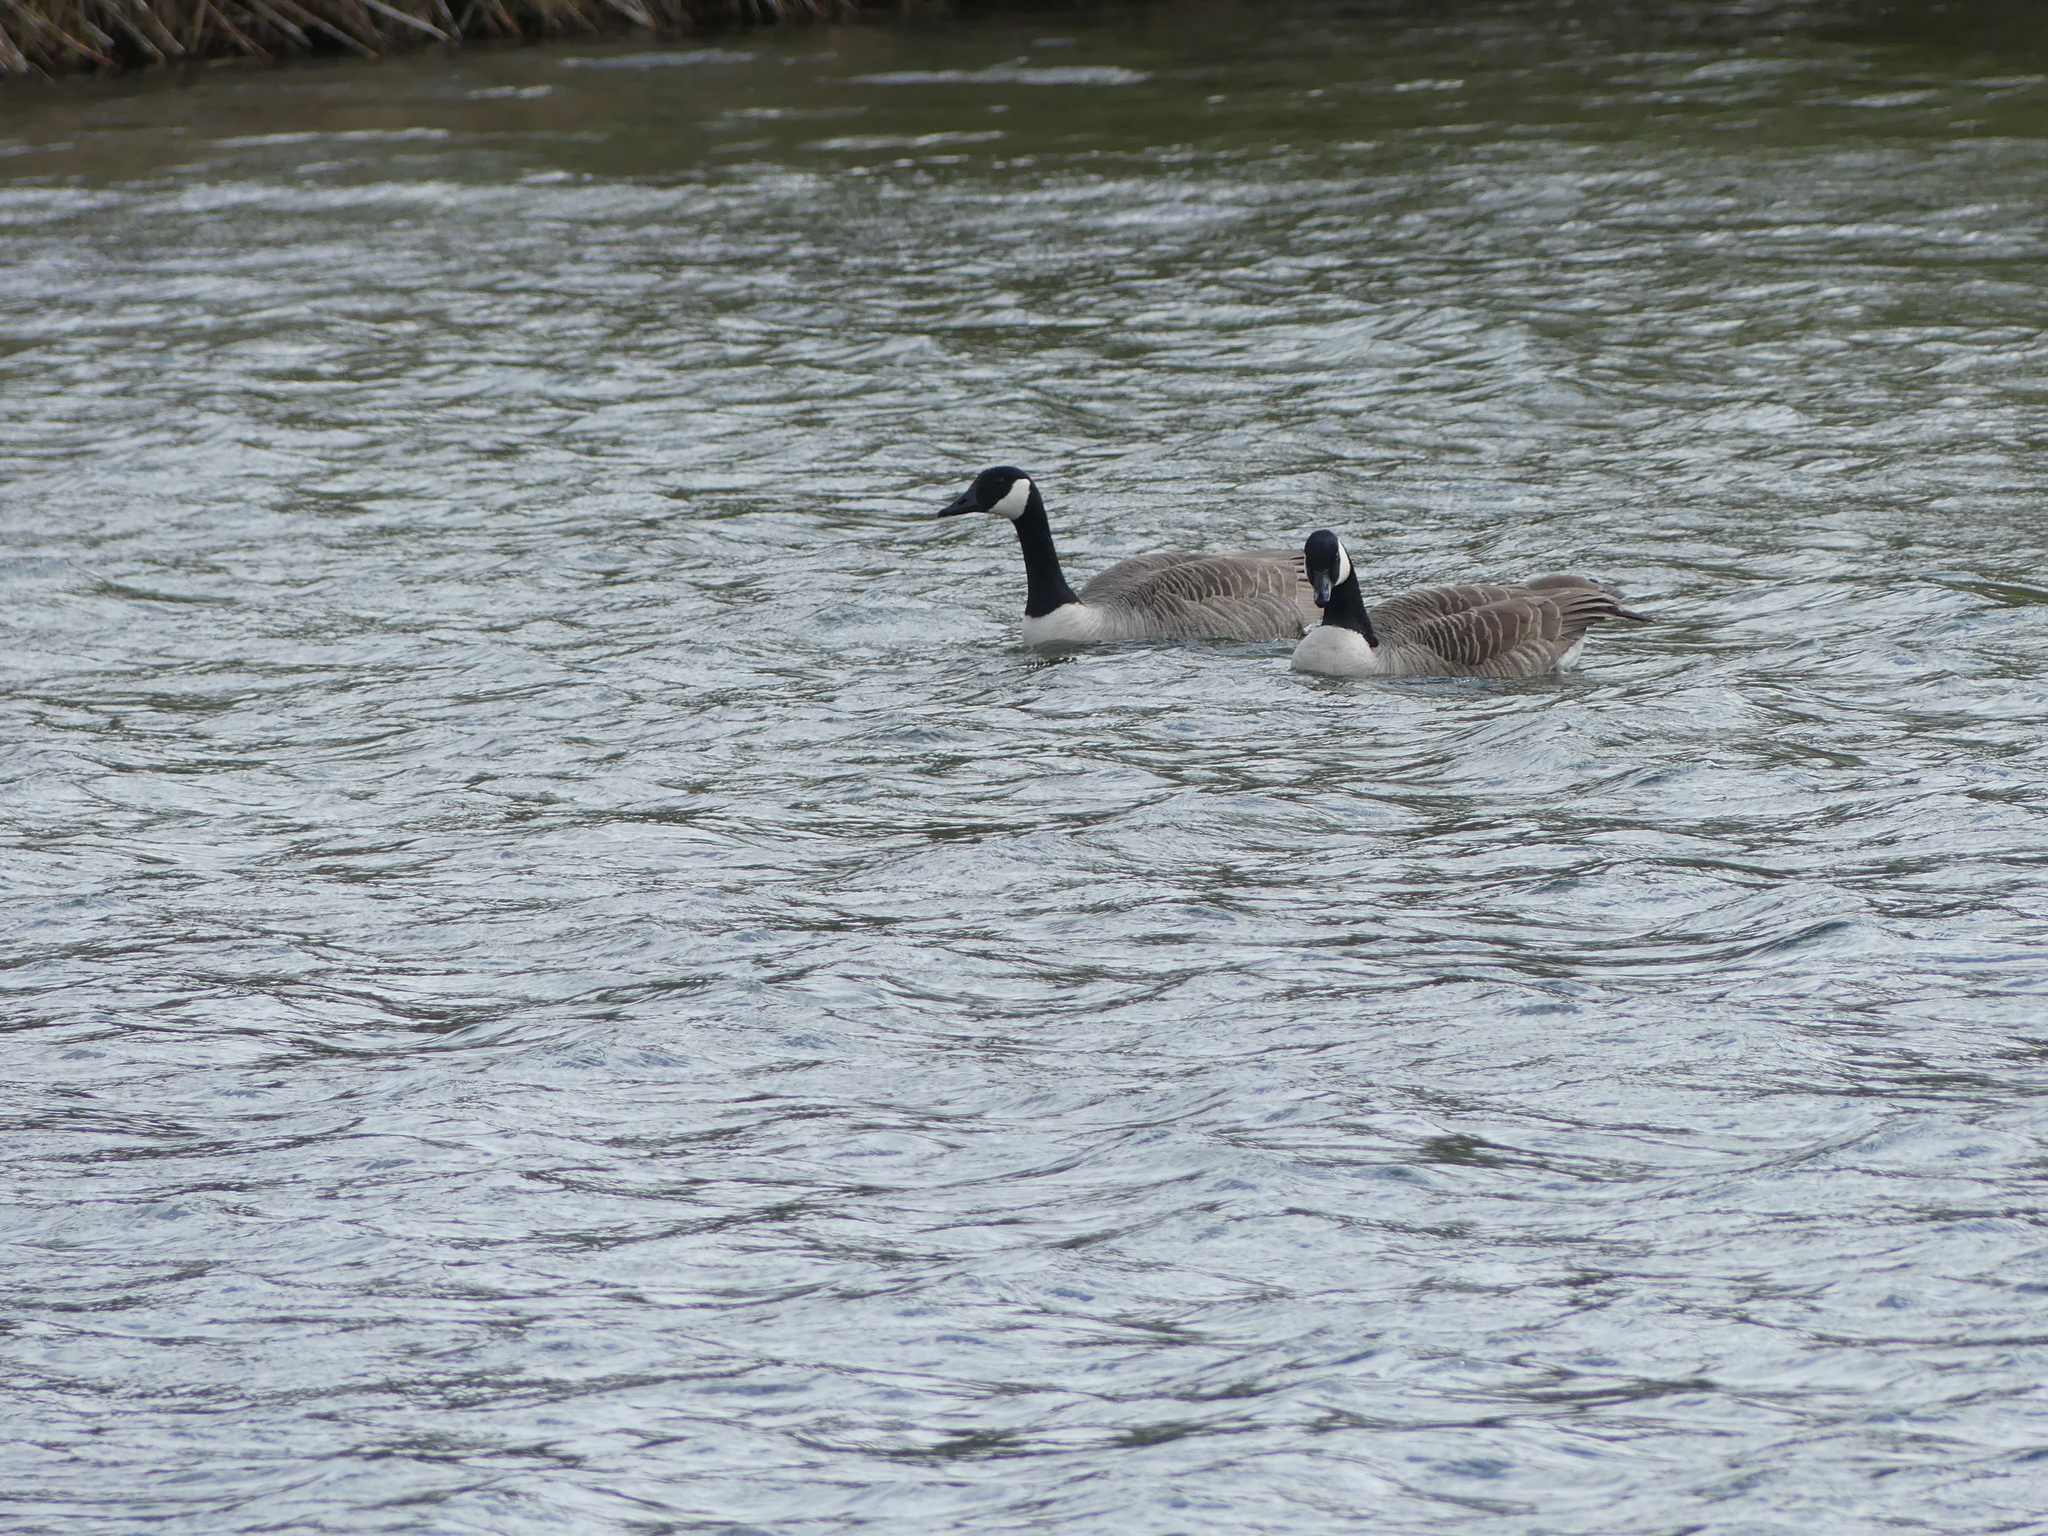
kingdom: Animalia
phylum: Chordata
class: Aves
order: Anseriformes
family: Anatidae
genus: Branta
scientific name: Branta canadensis
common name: Canada goose
